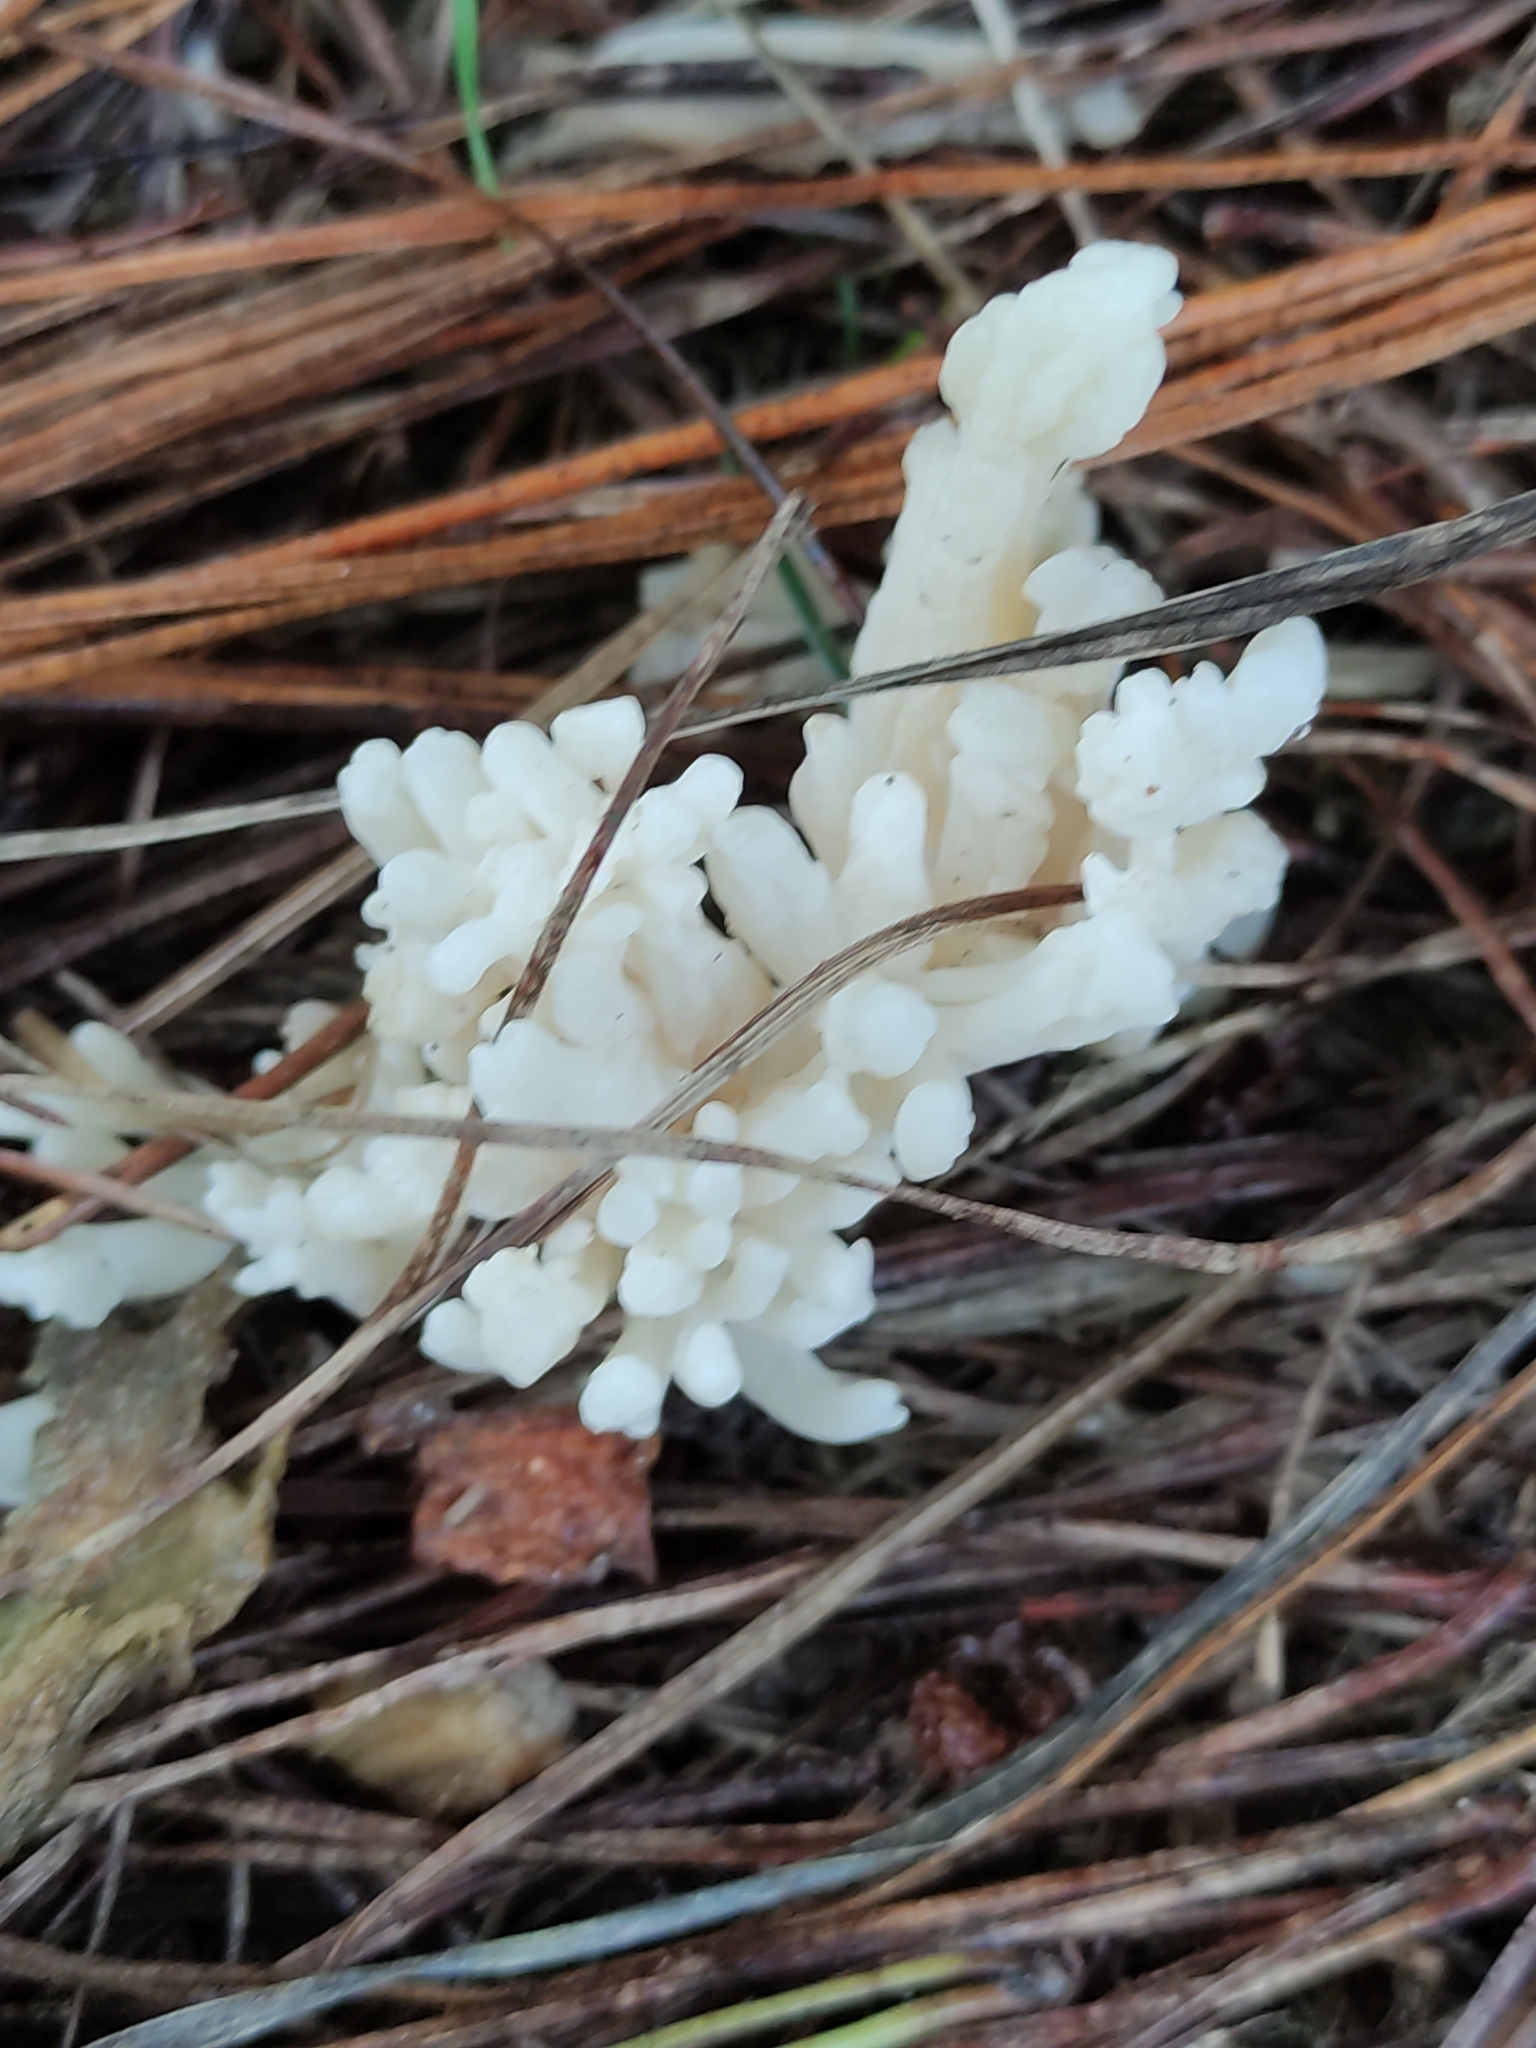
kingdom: Fungi
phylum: Basidiomycota
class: Agaricomycetes
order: Cantharellales
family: Hydnaceae
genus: Clavulina
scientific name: Clavulina rugosa
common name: Wrinkled club
